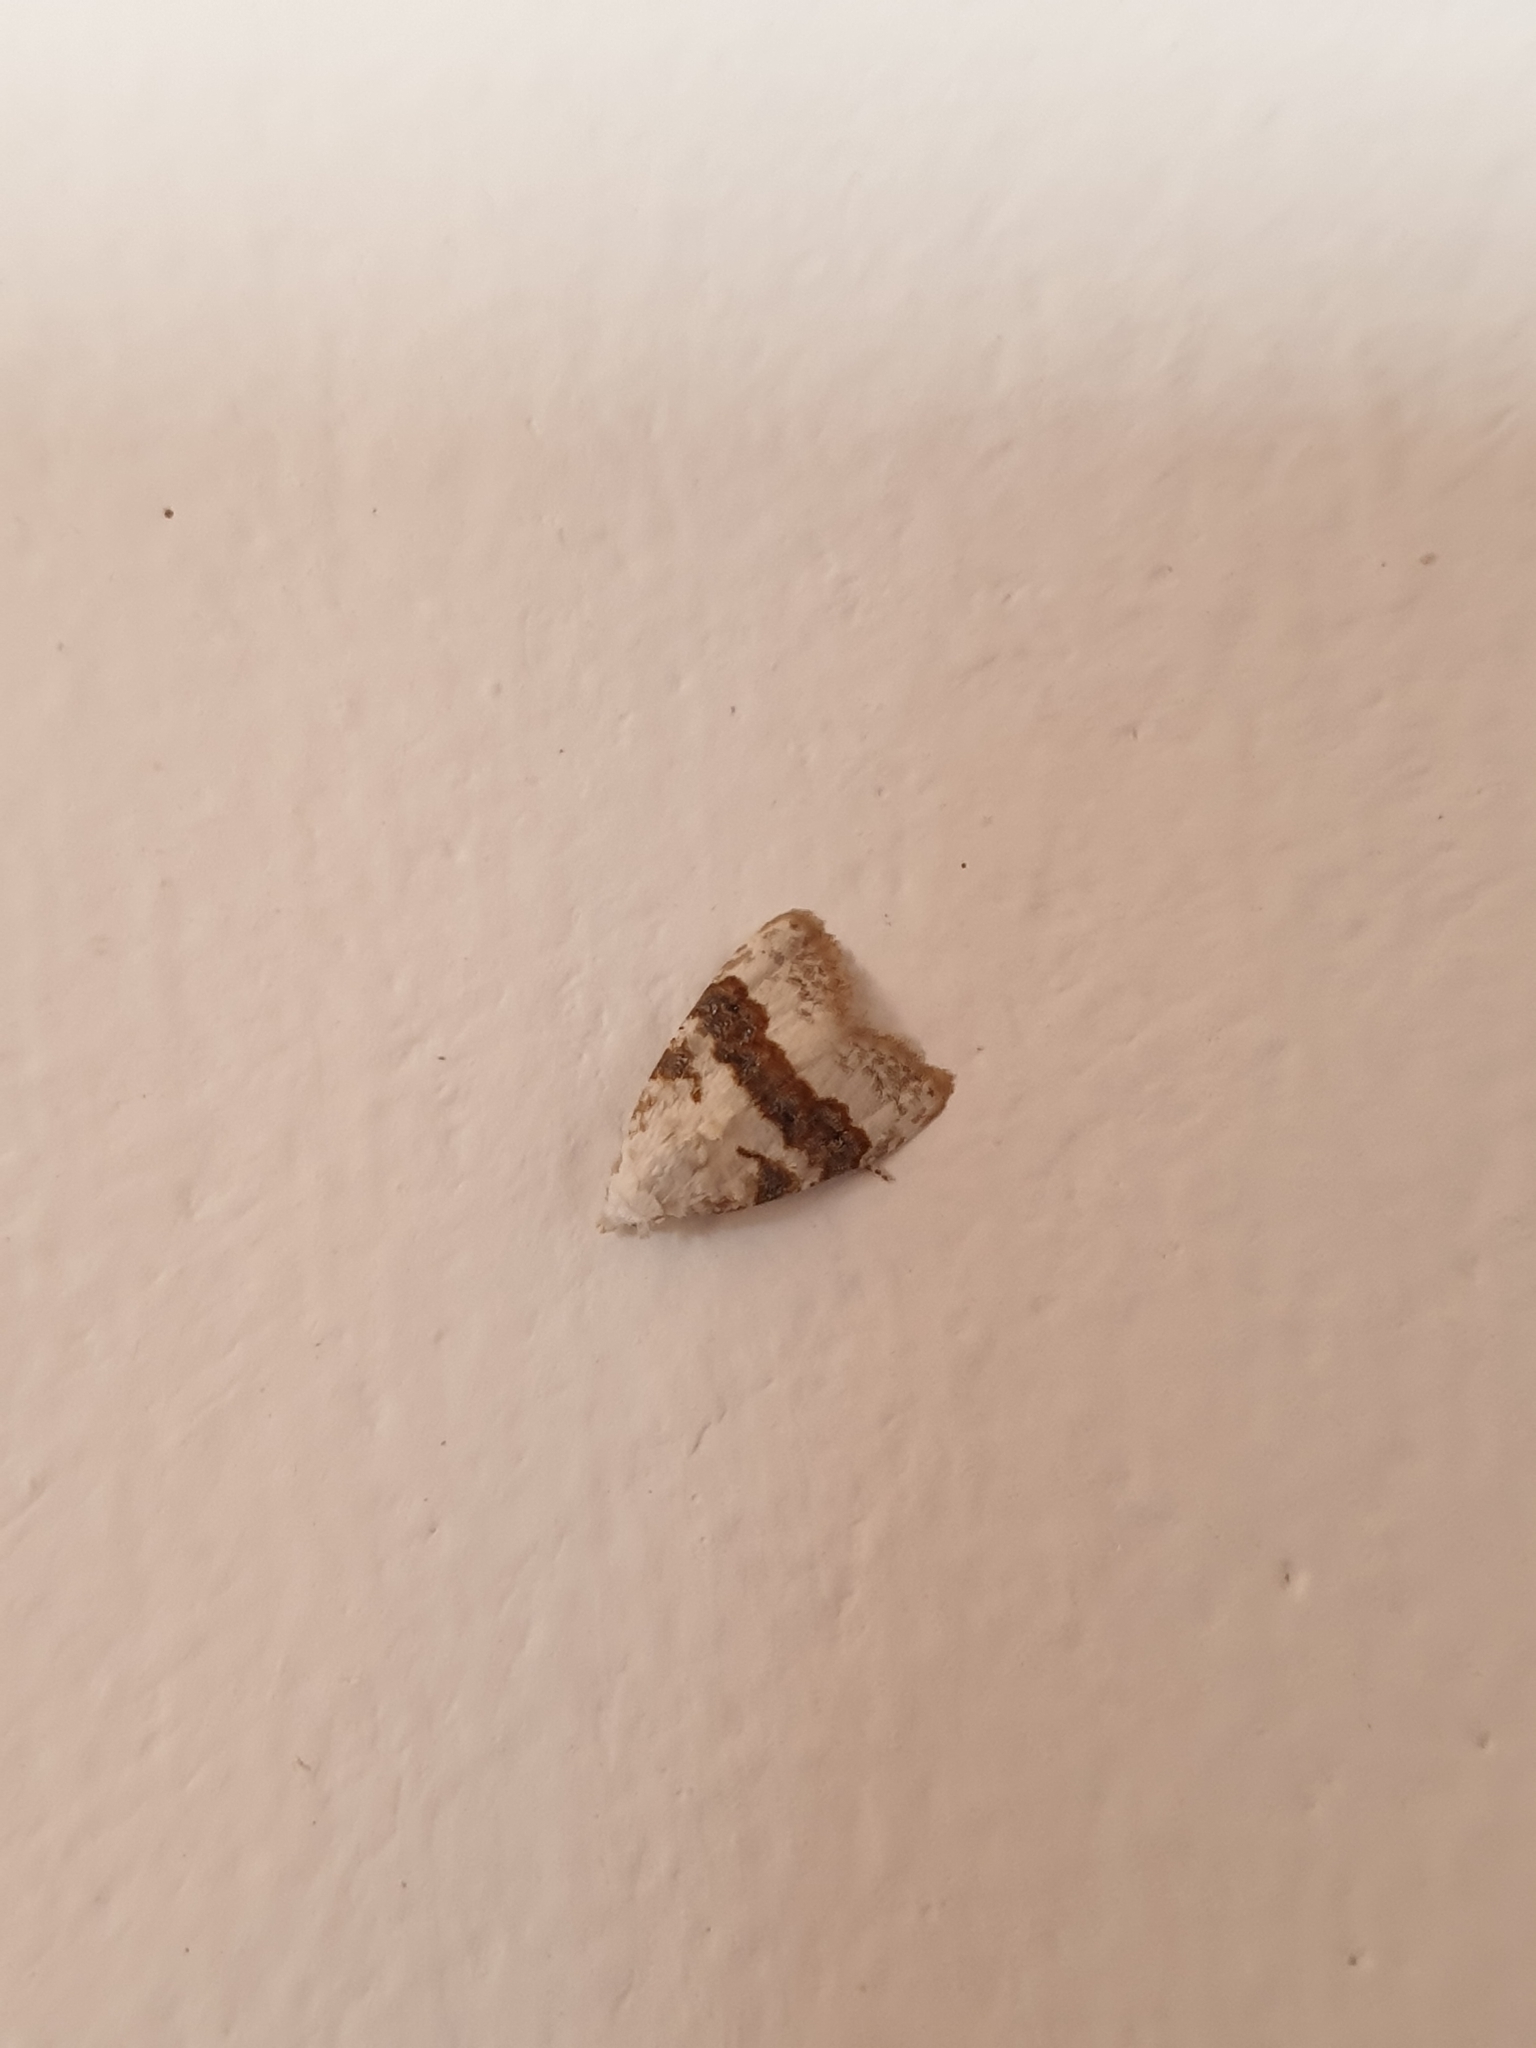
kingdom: Animalia
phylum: Arthropoda
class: Insecta
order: Lepidoptera
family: Nolidae
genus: Nola
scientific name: Nola taeniata
